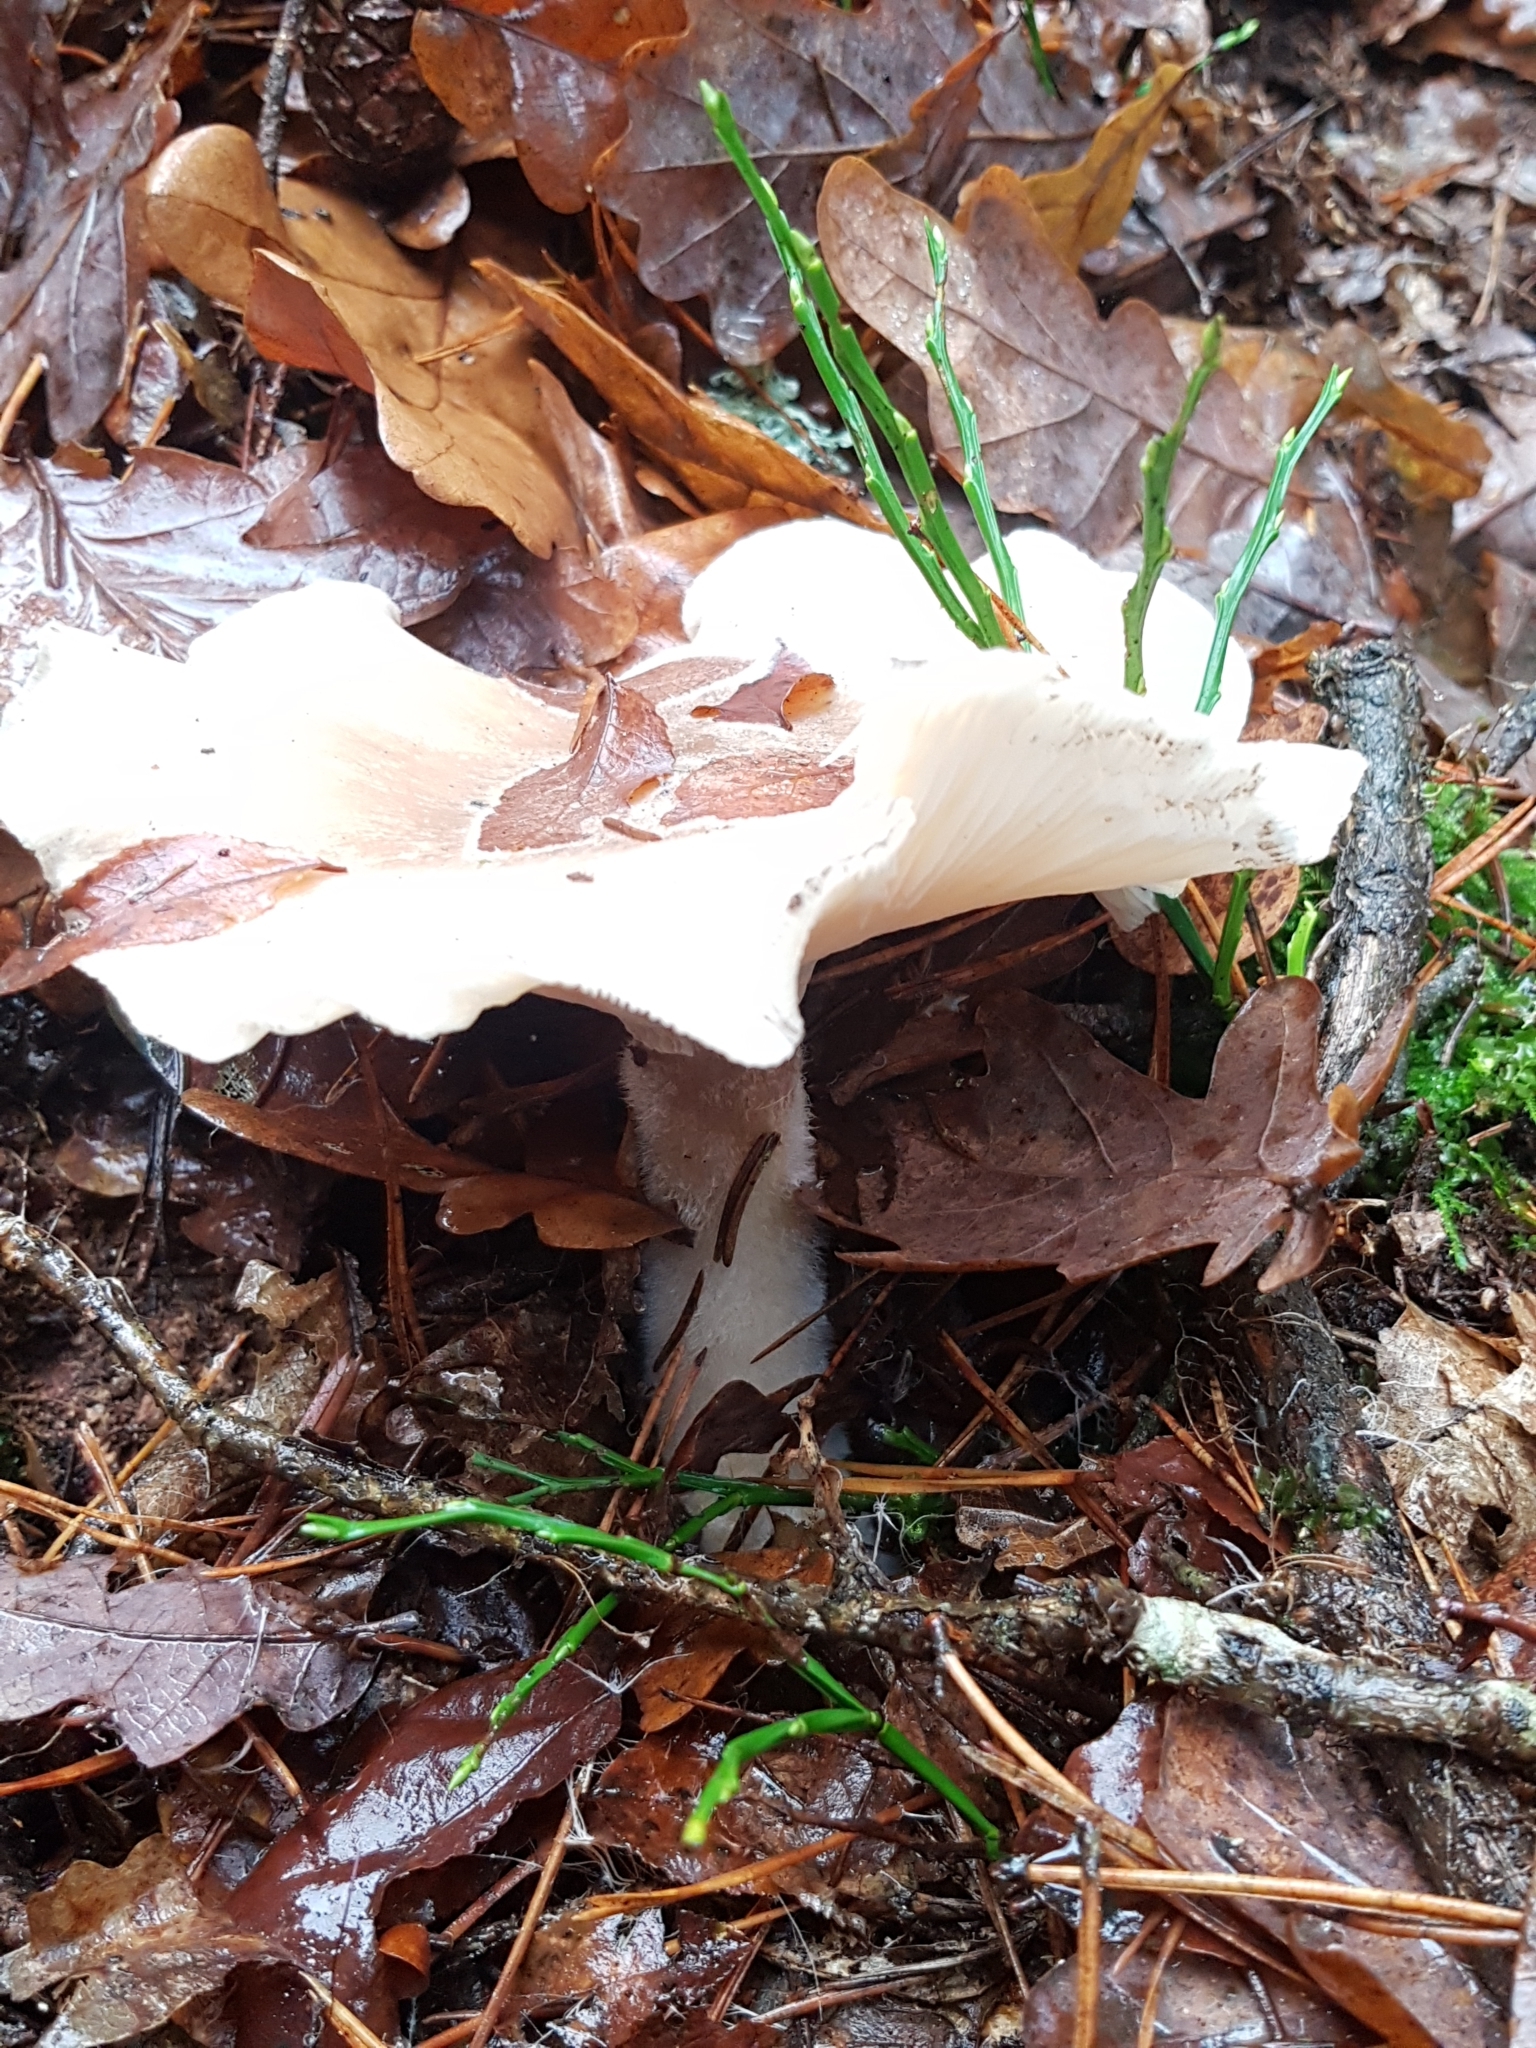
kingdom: Fungi
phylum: Basidiomycota
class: Agaricomycetes
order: Agaricales
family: Tricholomataceae
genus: Clitocybe
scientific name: Clitocybe nebularis
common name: Clouded agaric
